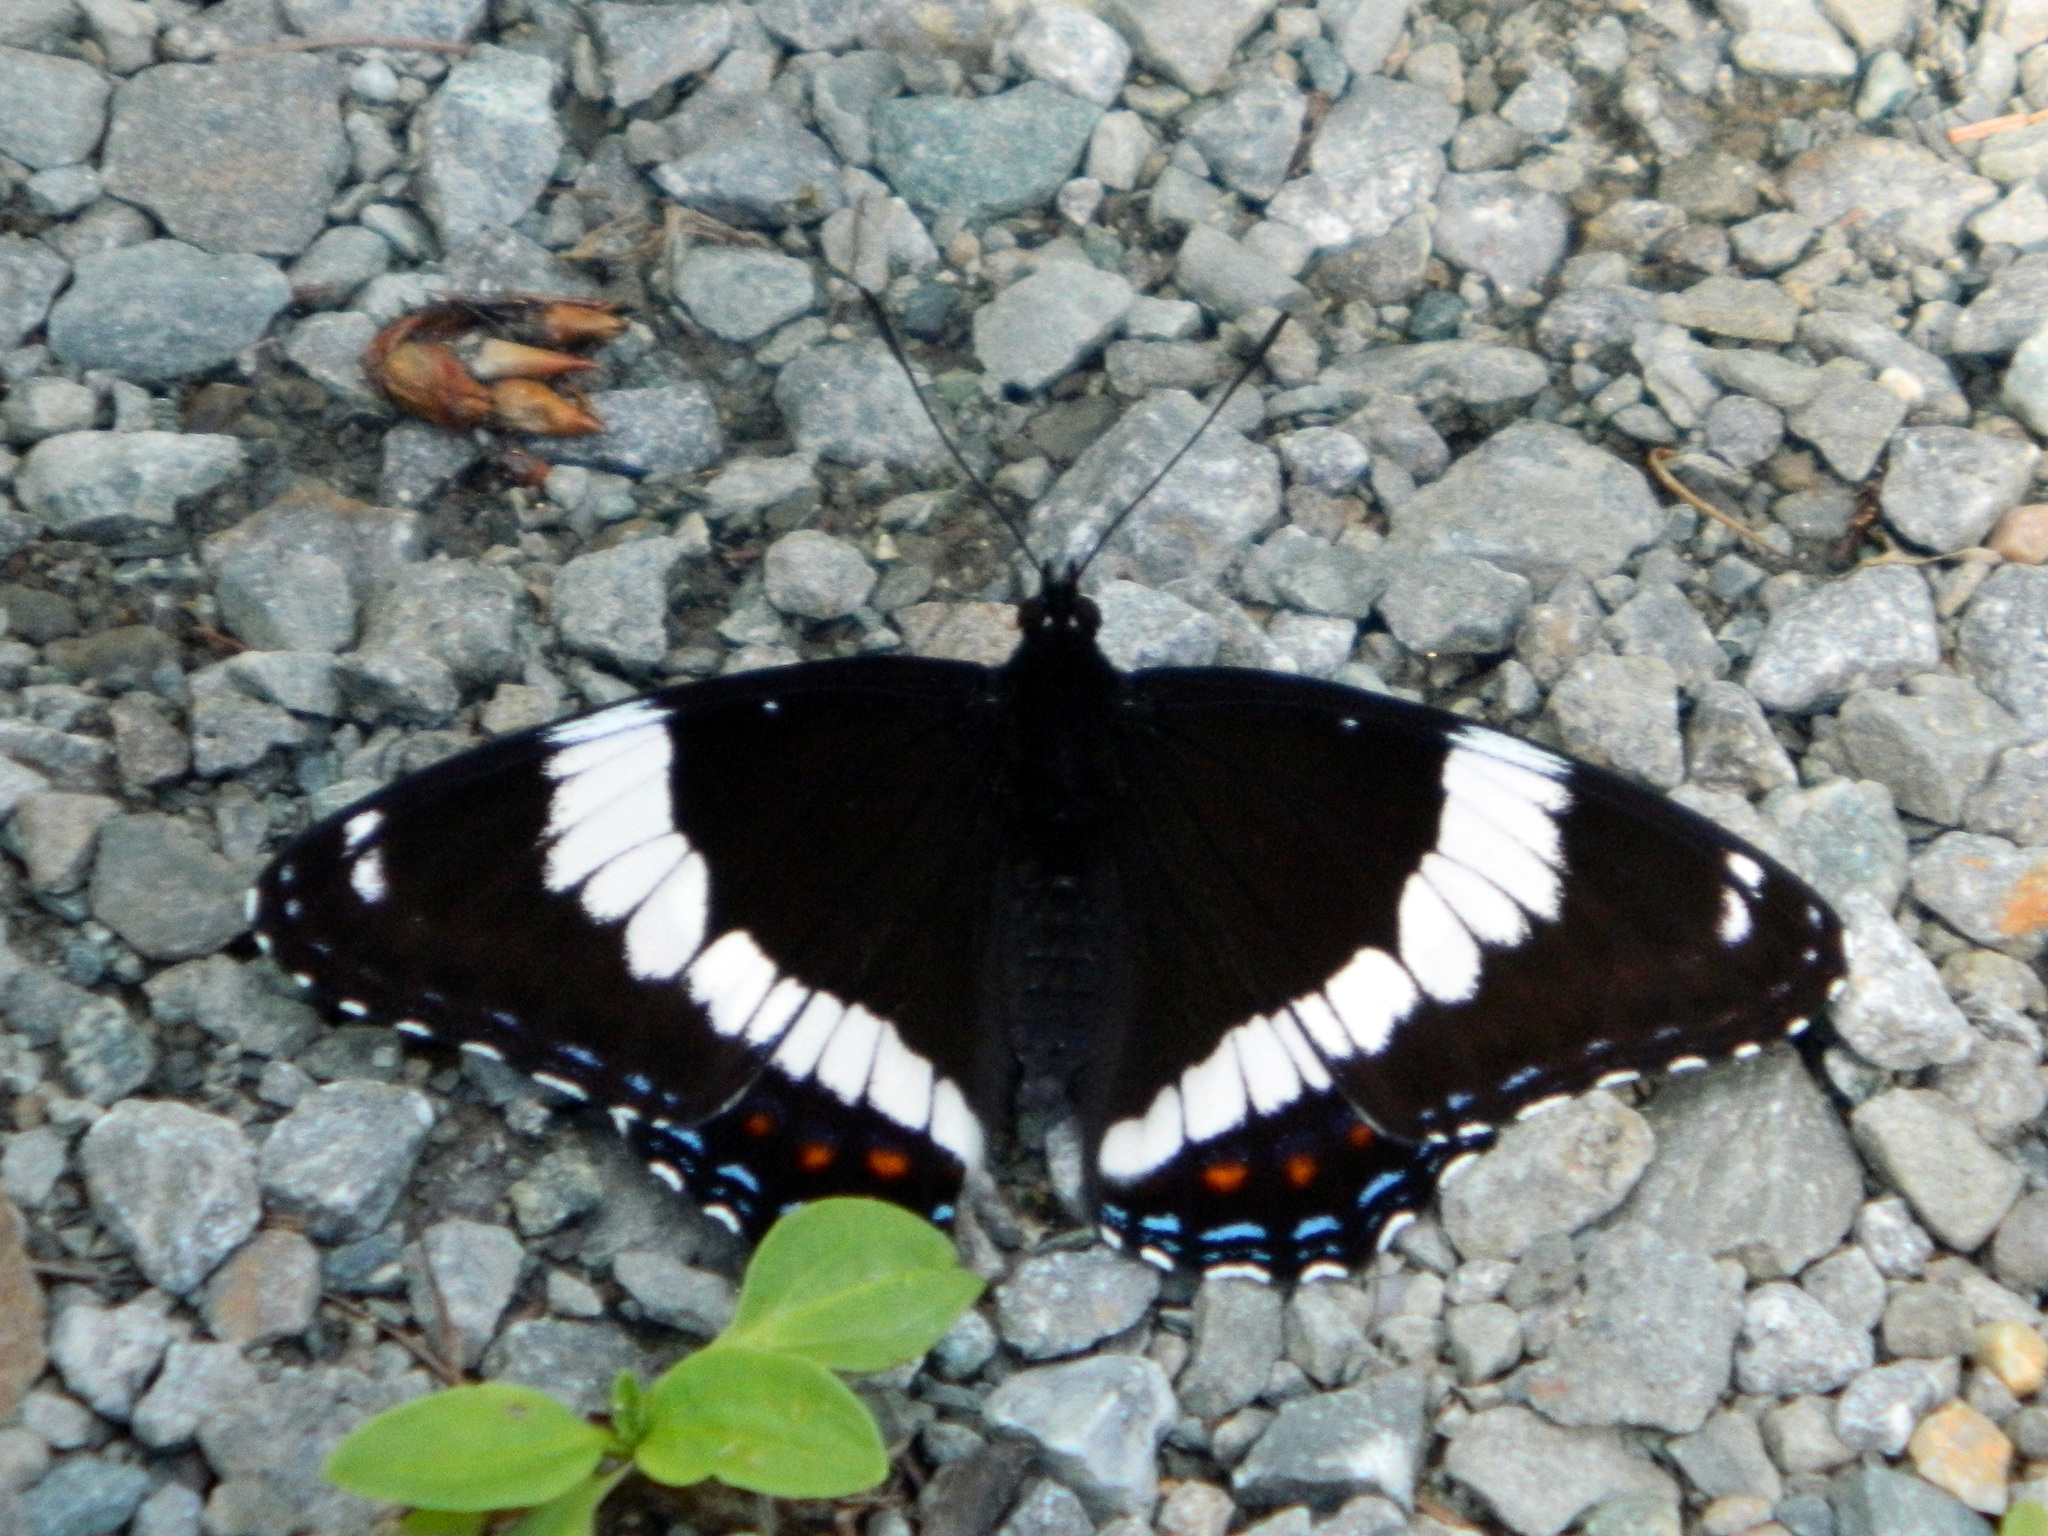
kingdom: Animalia
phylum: Arthropoda
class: Insecta
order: Lepidoptera
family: Nymphalidae
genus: Limenitis
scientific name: Limenitis arthemis
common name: Red-spotted admiral
